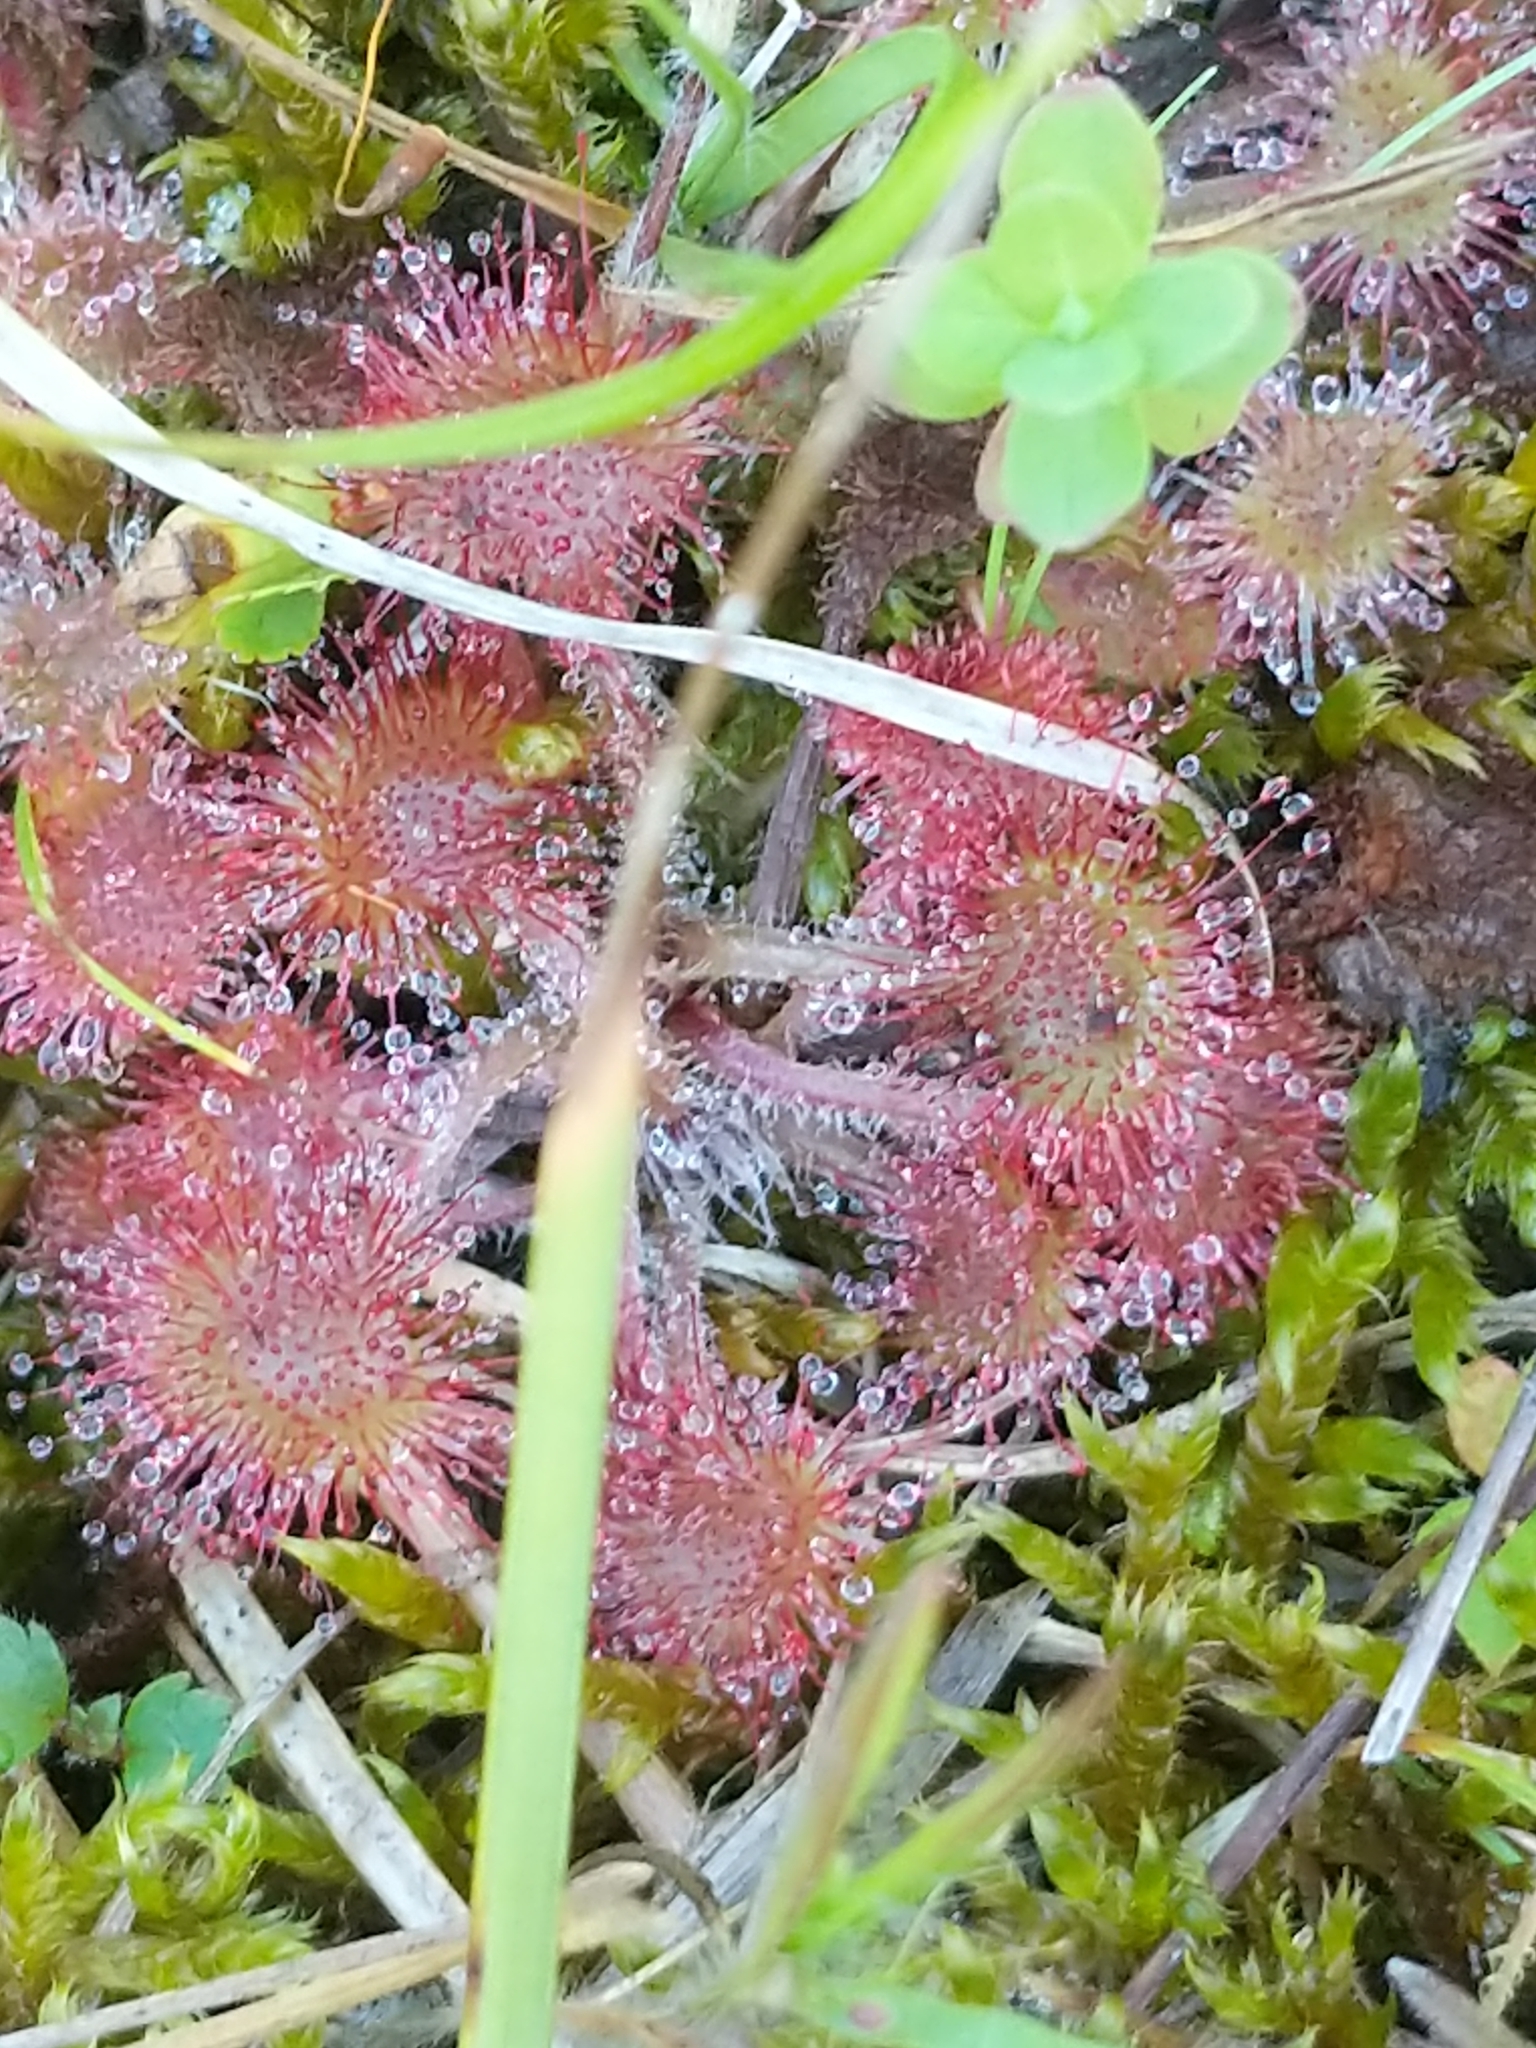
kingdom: Plantae
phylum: Tracheophyta
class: Magnoliopsida
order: Caryophyllales
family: Droseraceae
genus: Drosera
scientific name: Drosera rotundifolia
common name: Round-leaved sundew
